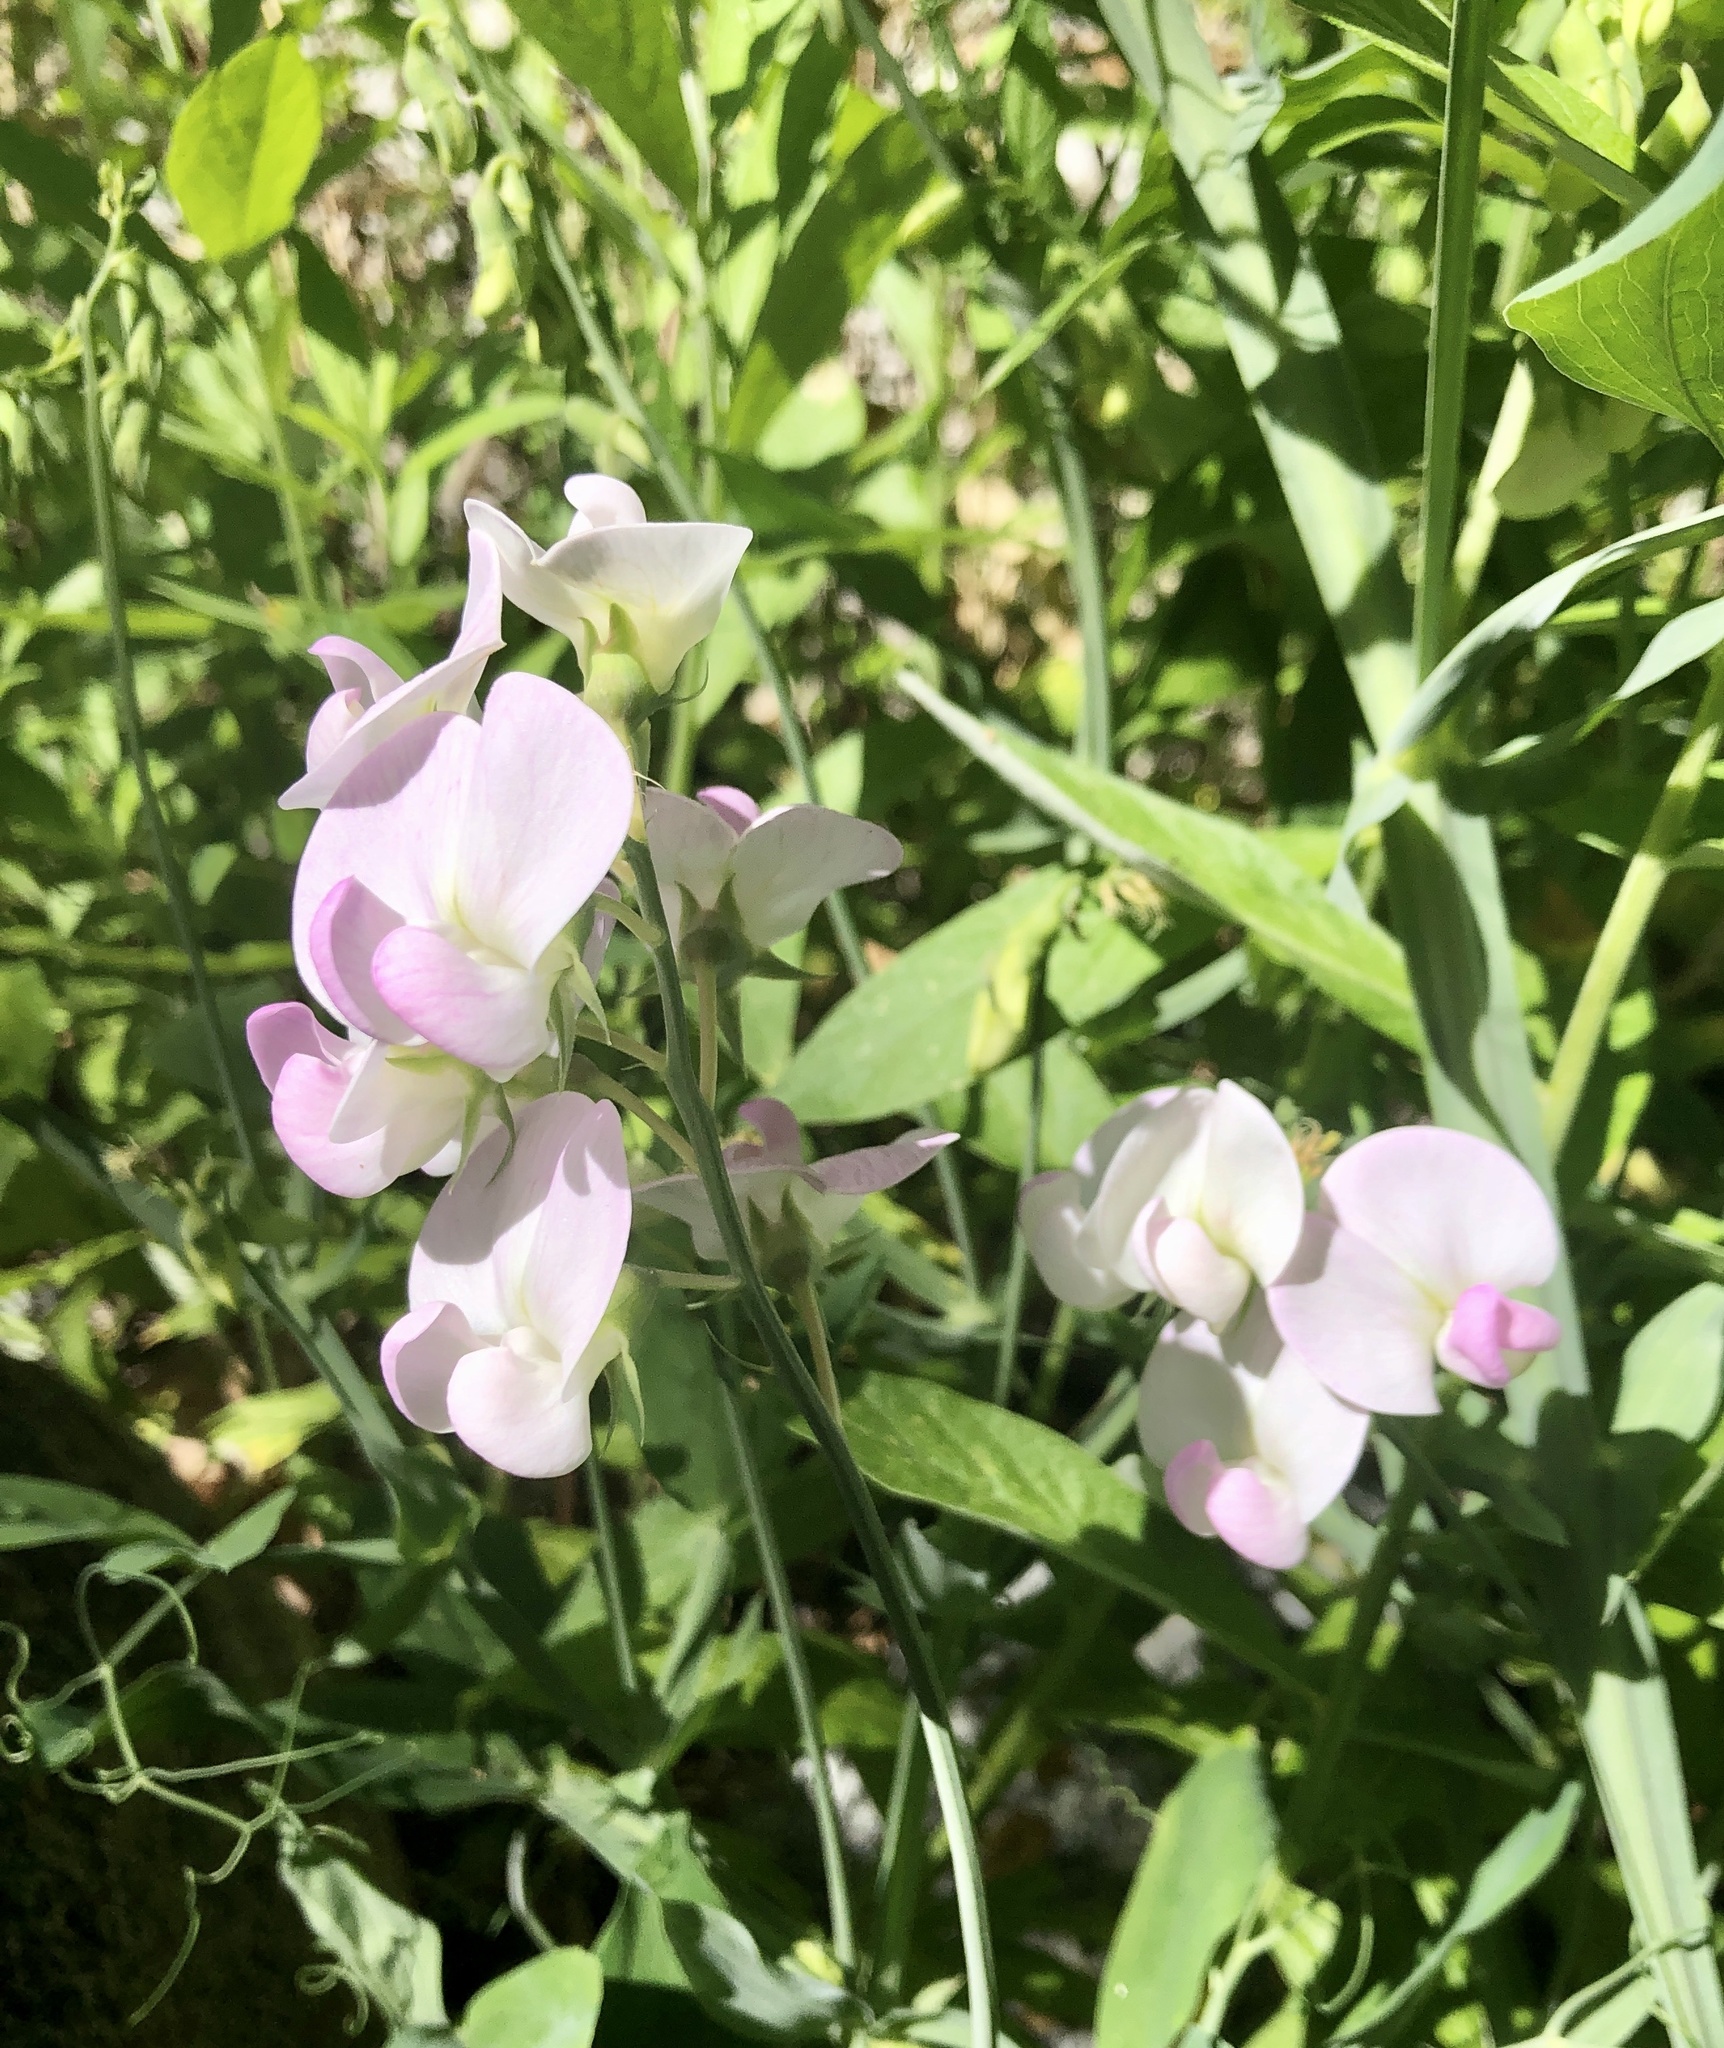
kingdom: Plantae
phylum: Tracheophyta
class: Magnoliopsida
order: Fabales
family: Fabaceae
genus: Lathyrus
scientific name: Lathyrus latifolius
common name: Perennial pea
